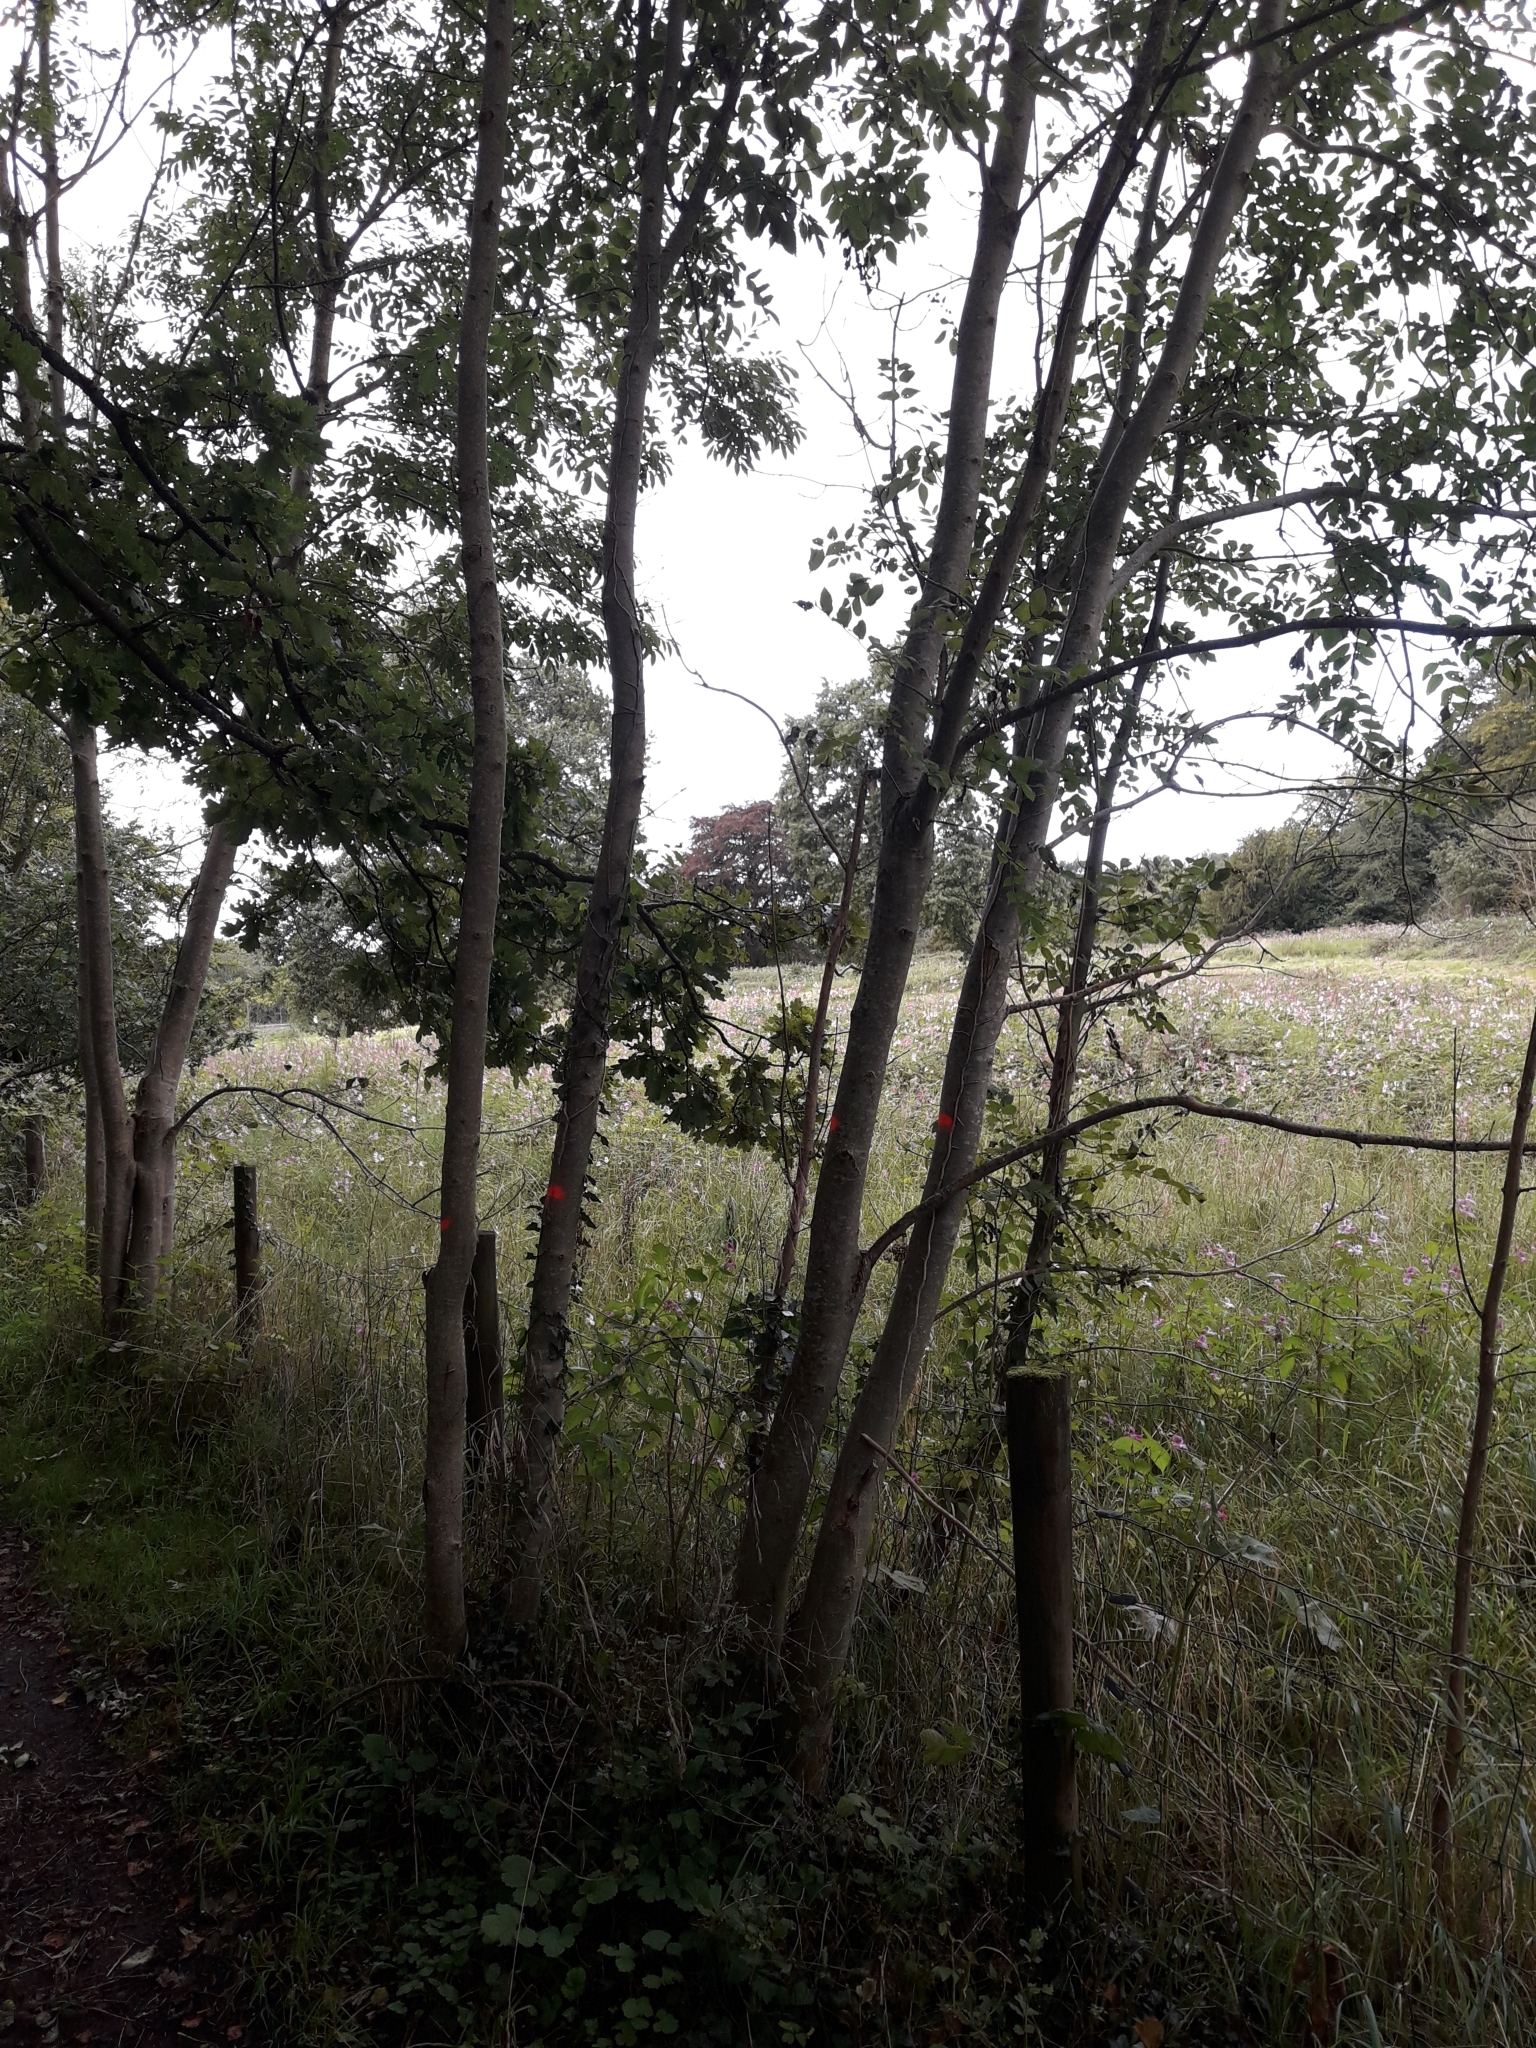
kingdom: Plantae
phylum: Tracheophyta
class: Magnoliopsida
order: Lamiales
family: Oleaceae
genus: Fraxinus
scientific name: Fraxinus excelsior
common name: European ash
